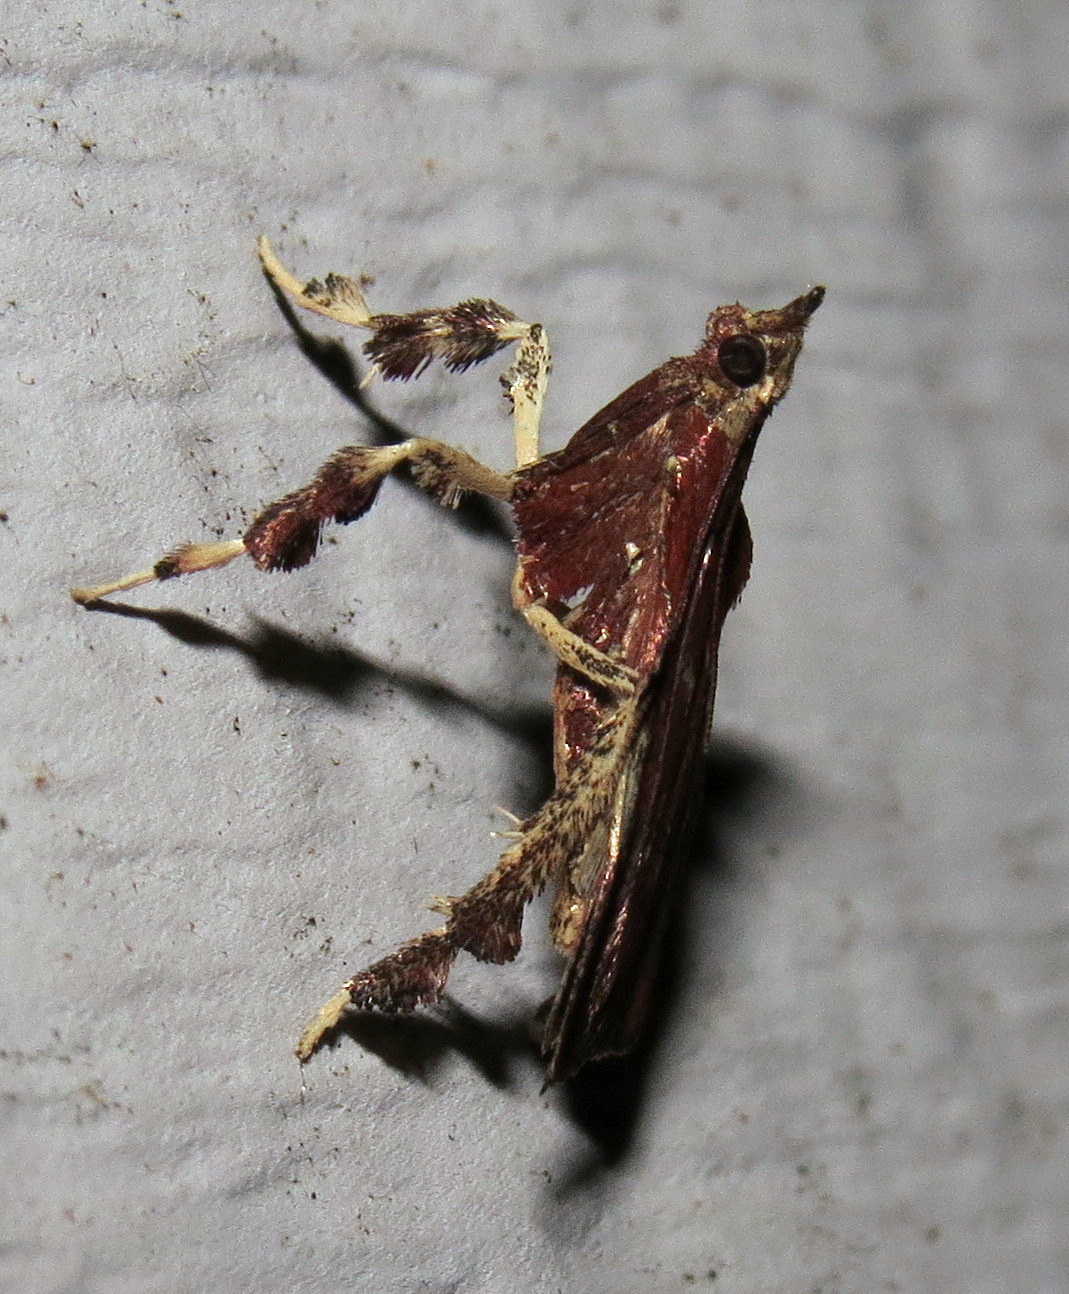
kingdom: Animalia
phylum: Arthropoda
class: Insecta
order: Lepidoptera
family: Pyralidae
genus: Galasa
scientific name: Galasa nigrinodis
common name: Boxwood leaftier moth
